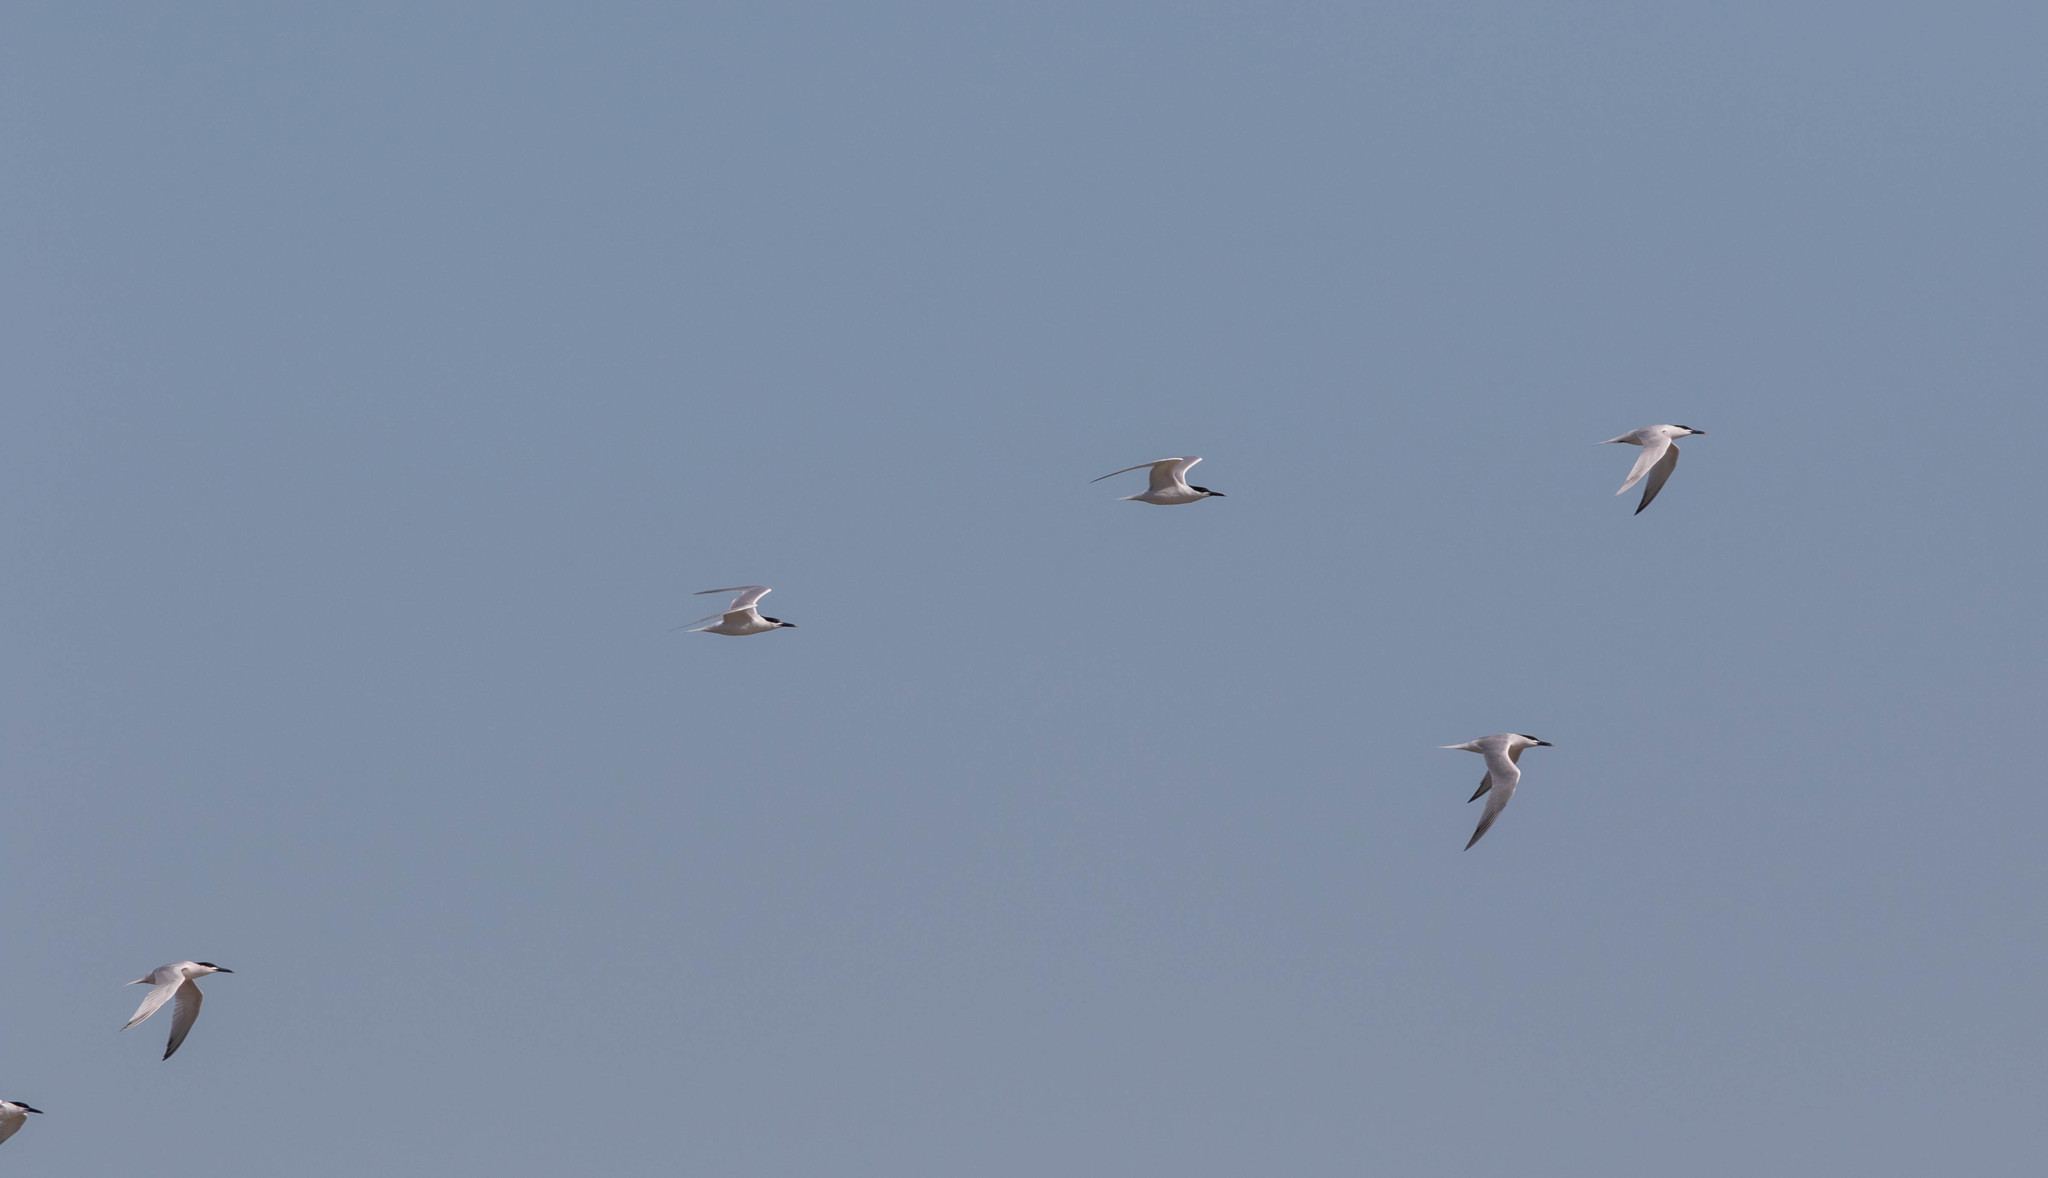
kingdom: Animalia
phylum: Chordata
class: Aves
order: Charadriiformes
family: Laridae
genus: Thalasseus
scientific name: Thalasseus sandvicensis
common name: Sandwich tern
